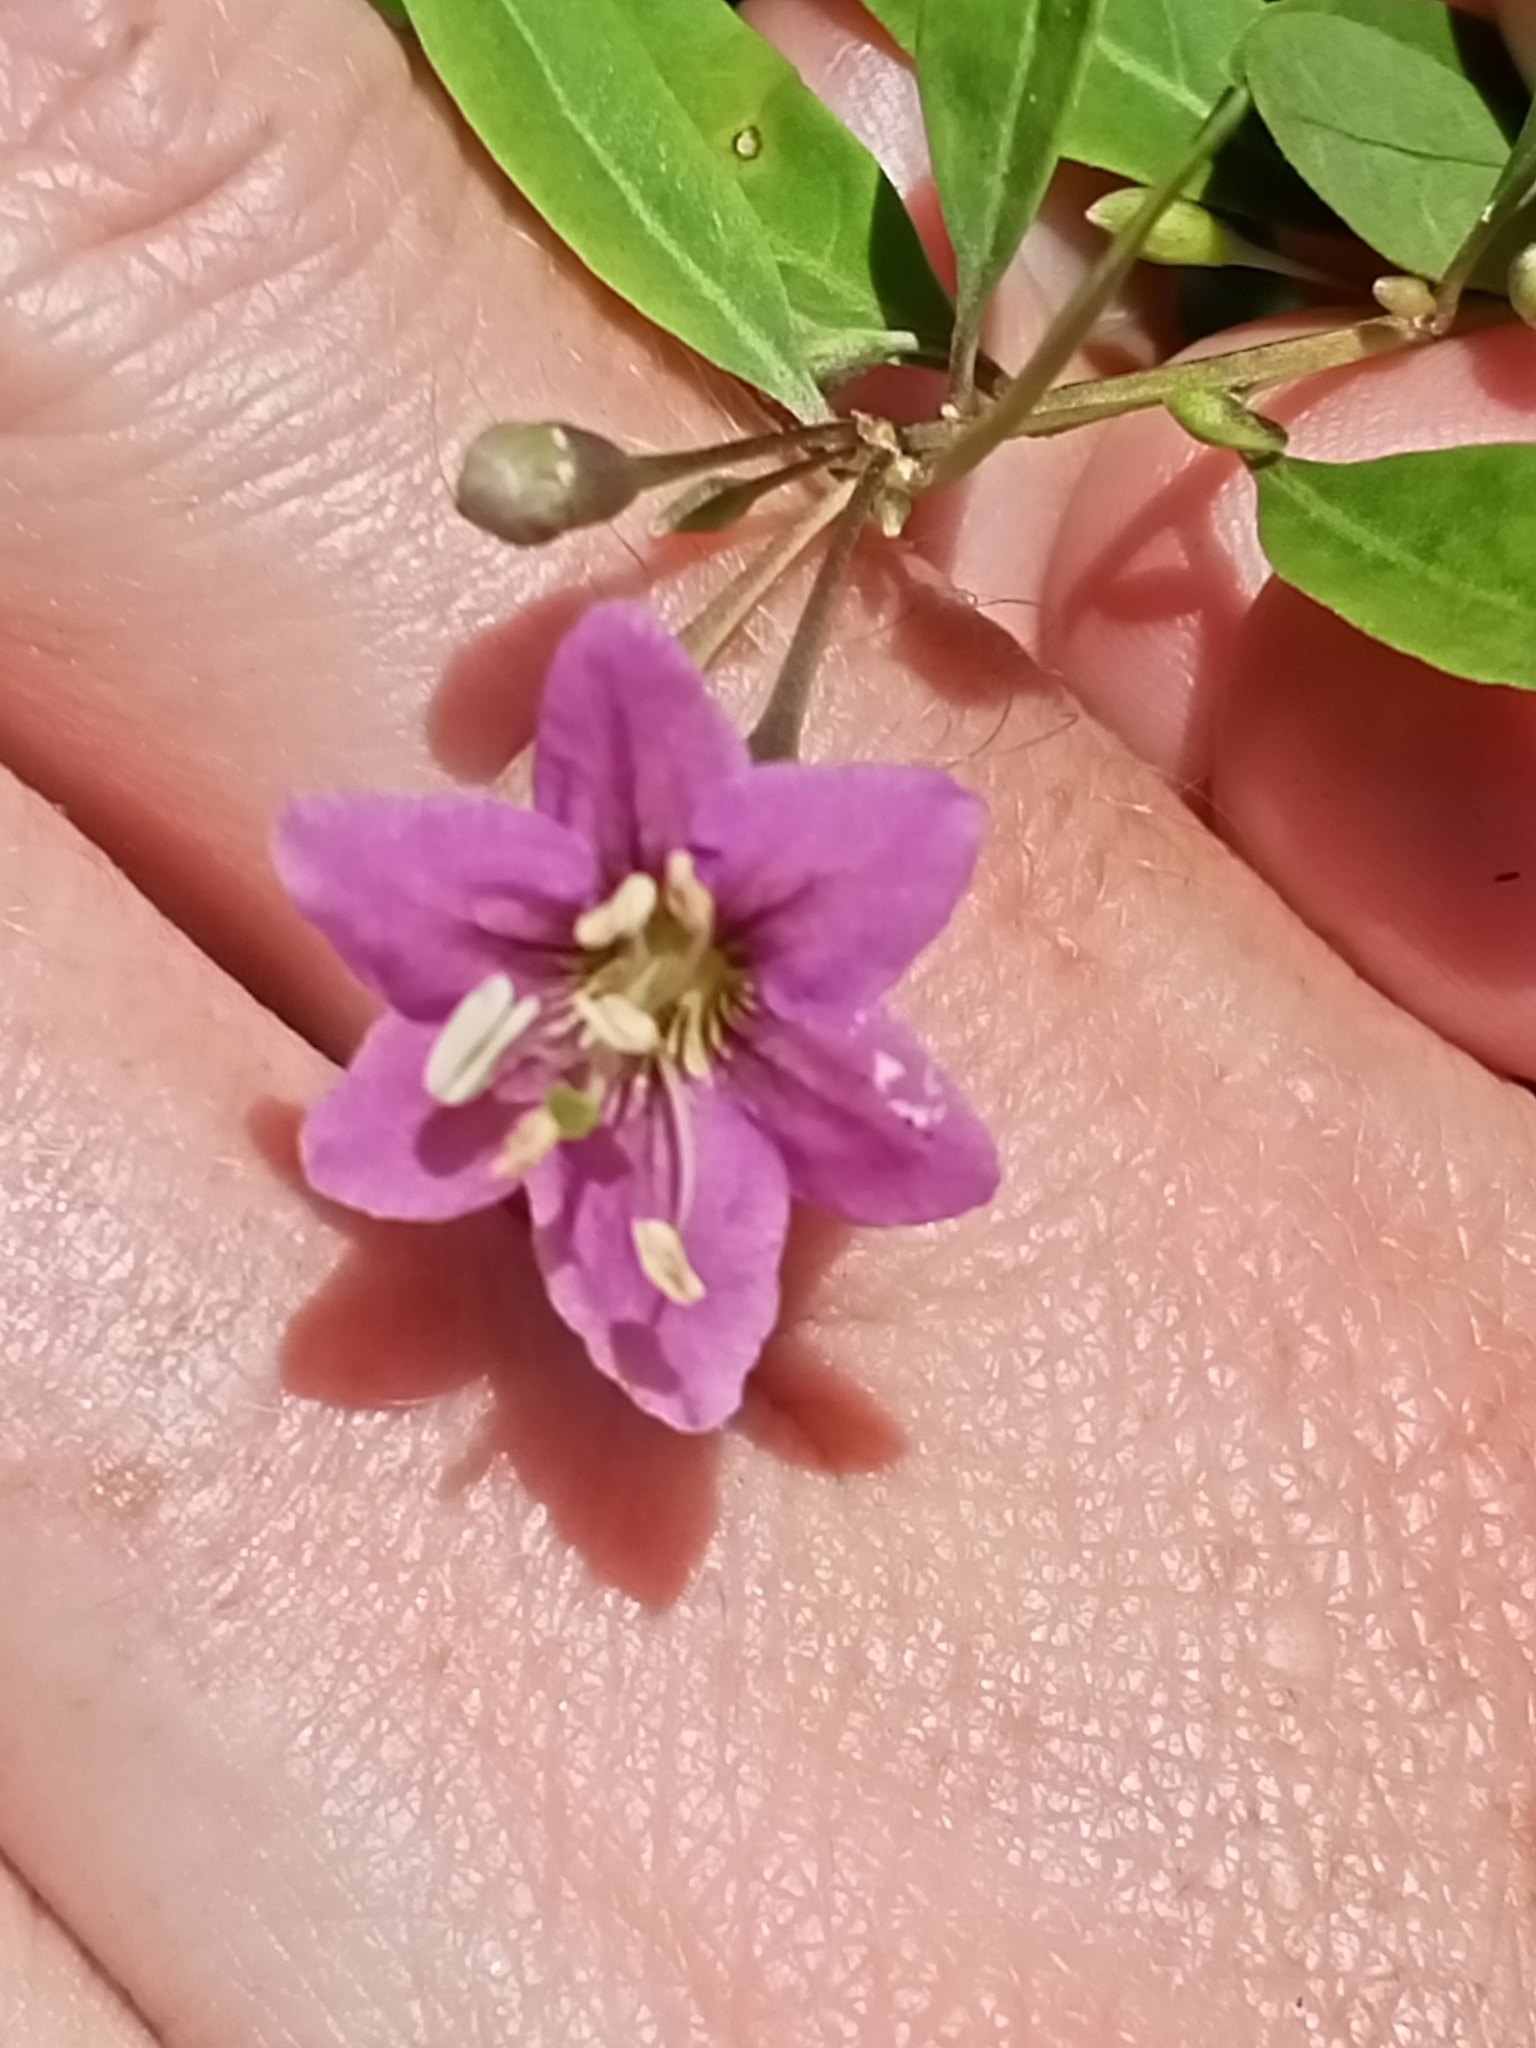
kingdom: Plantae
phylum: Tracheophyta
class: Magnoliopsida
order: Solanales
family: Solanaceae
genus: Lycium
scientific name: Lycium barbarum
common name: Duke of argyll's teaplant
